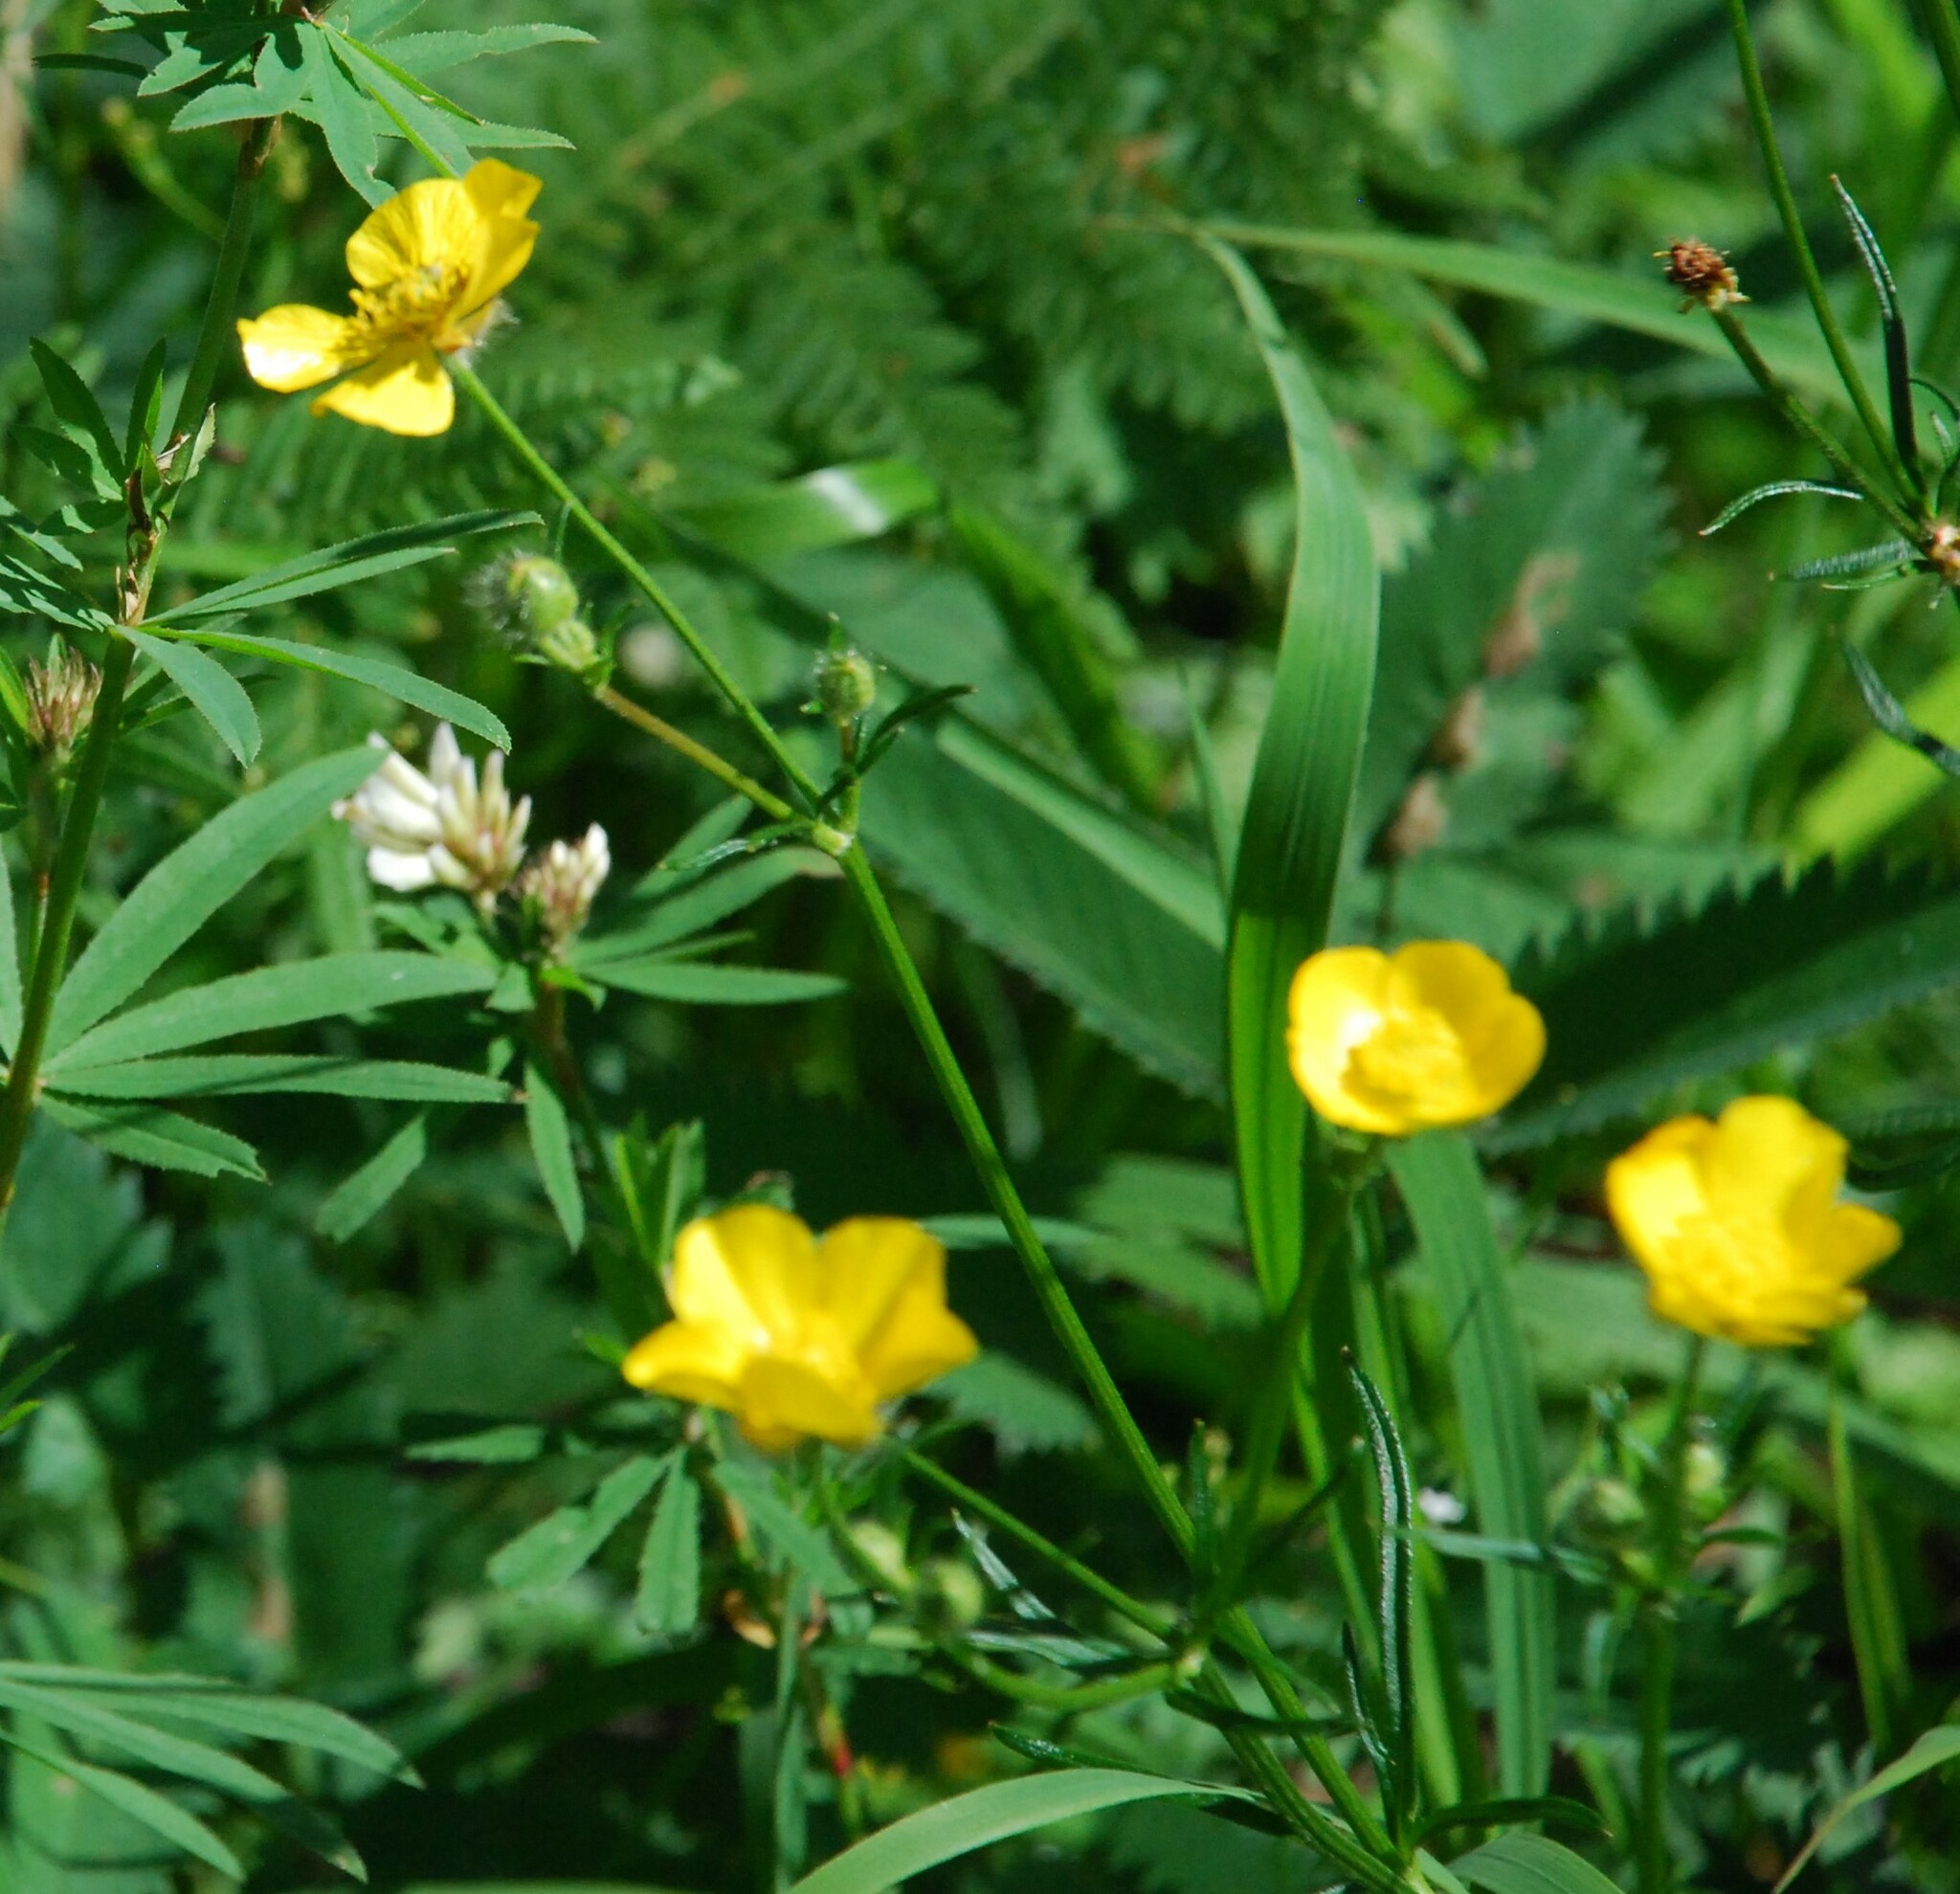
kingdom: Plantae
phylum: Tracheophyta
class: Magnoliopsida
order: Ranunculales
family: Ranunculaceae
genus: Ranunculus
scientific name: Ranunculus polyanthemos
